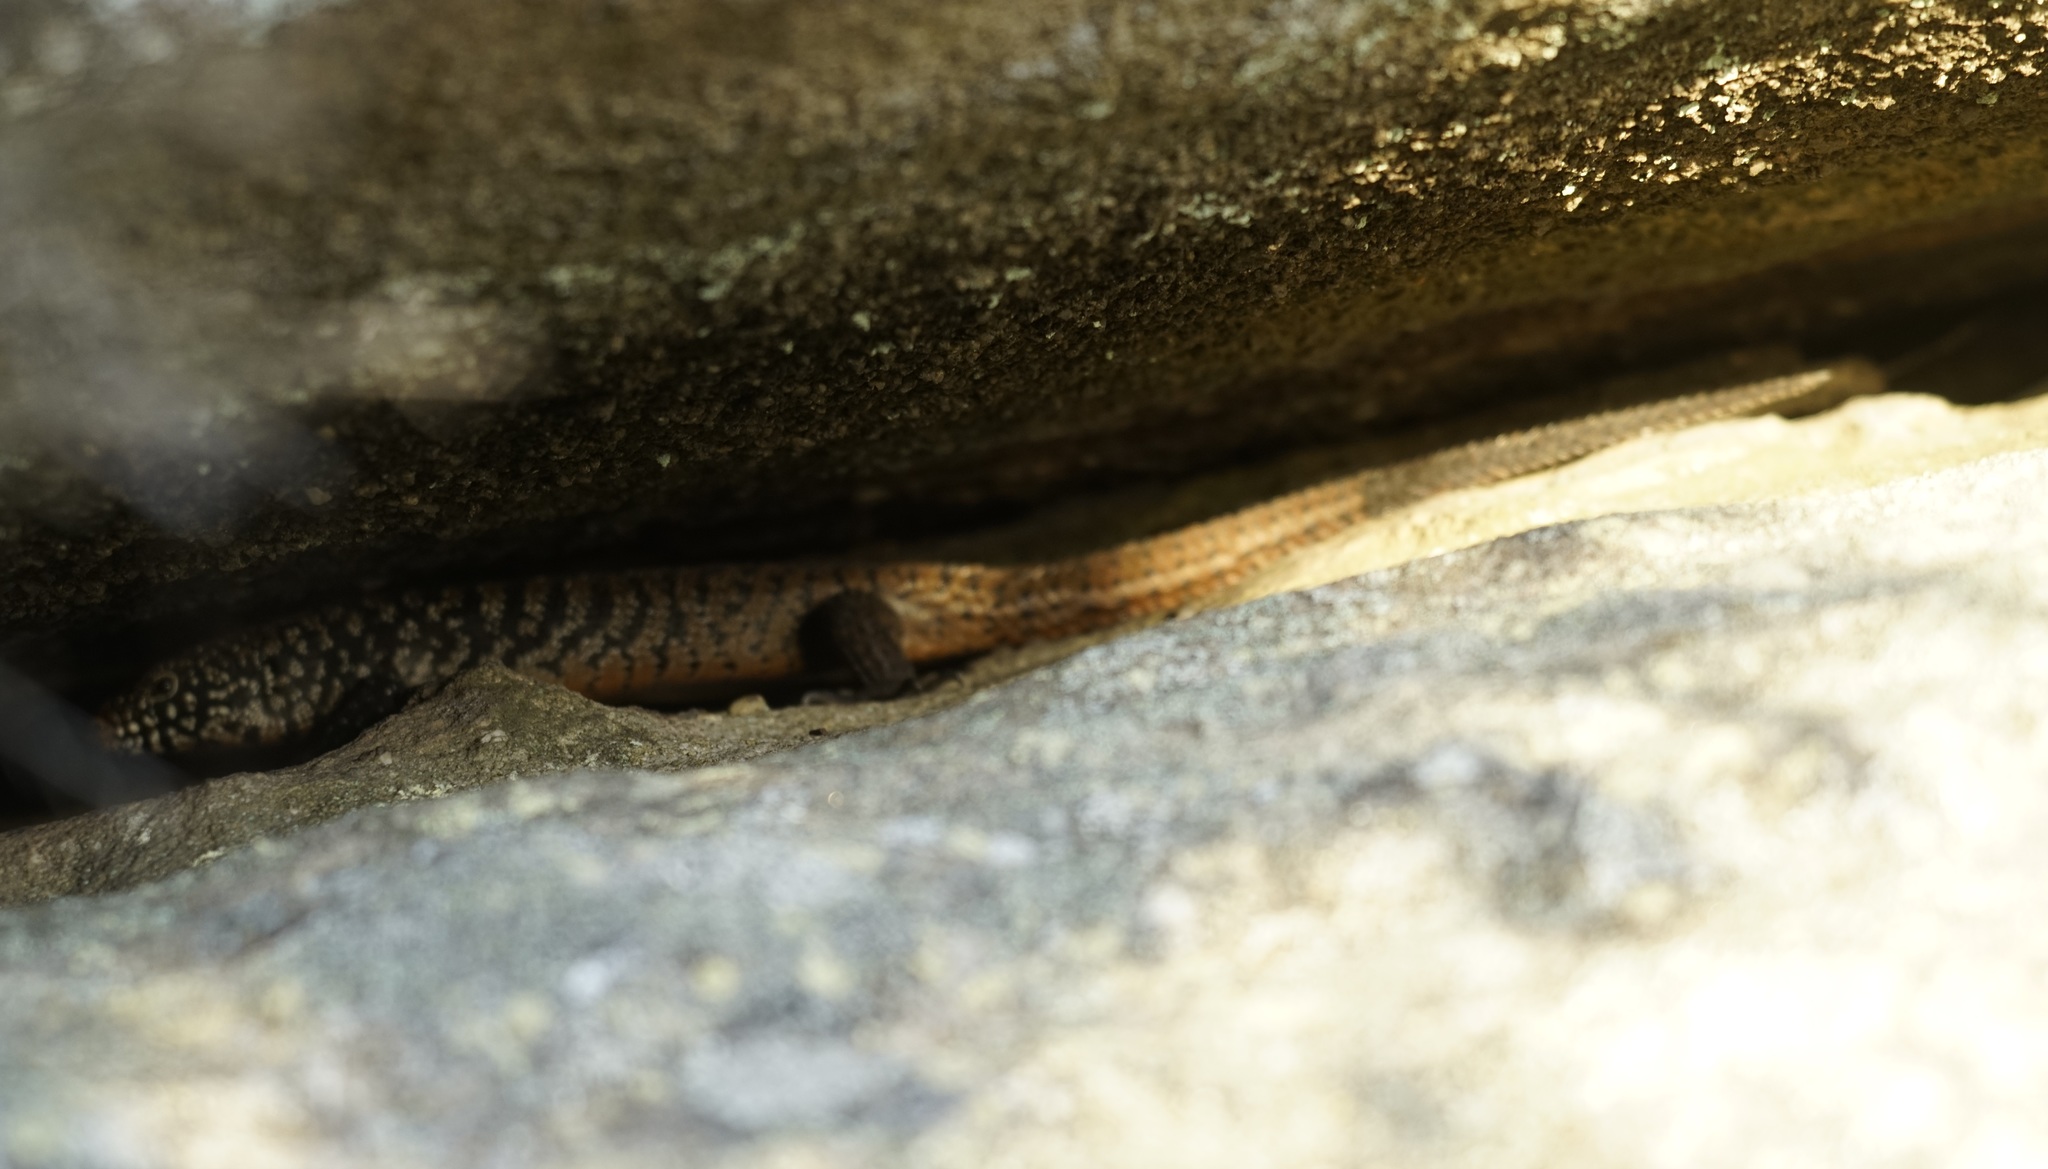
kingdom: Animalia
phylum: Chordata
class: Squamata
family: Scincidae
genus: Egernia
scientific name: Egernia cunninghami
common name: Cunningham's skink
